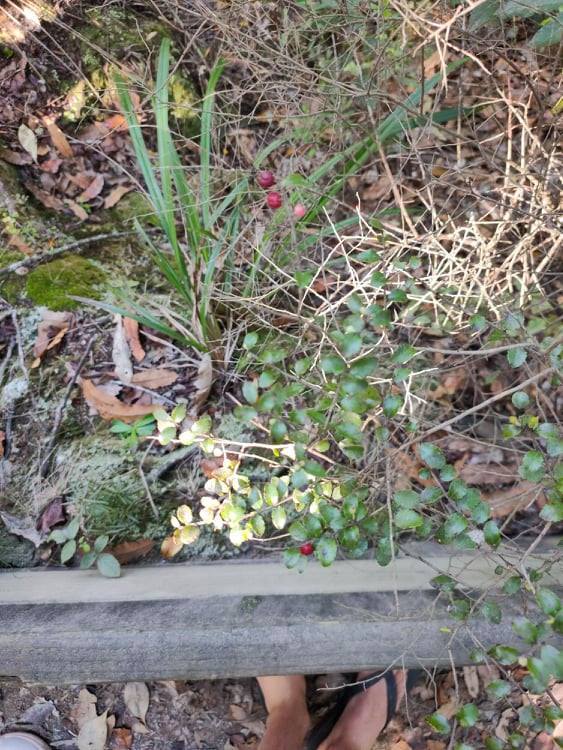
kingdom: Plantae
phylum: Tracheophyta
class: Magnoliopsida
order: Ericales
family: Ericaceae
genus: Gaultheria
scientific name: Gaultheria antipoda
